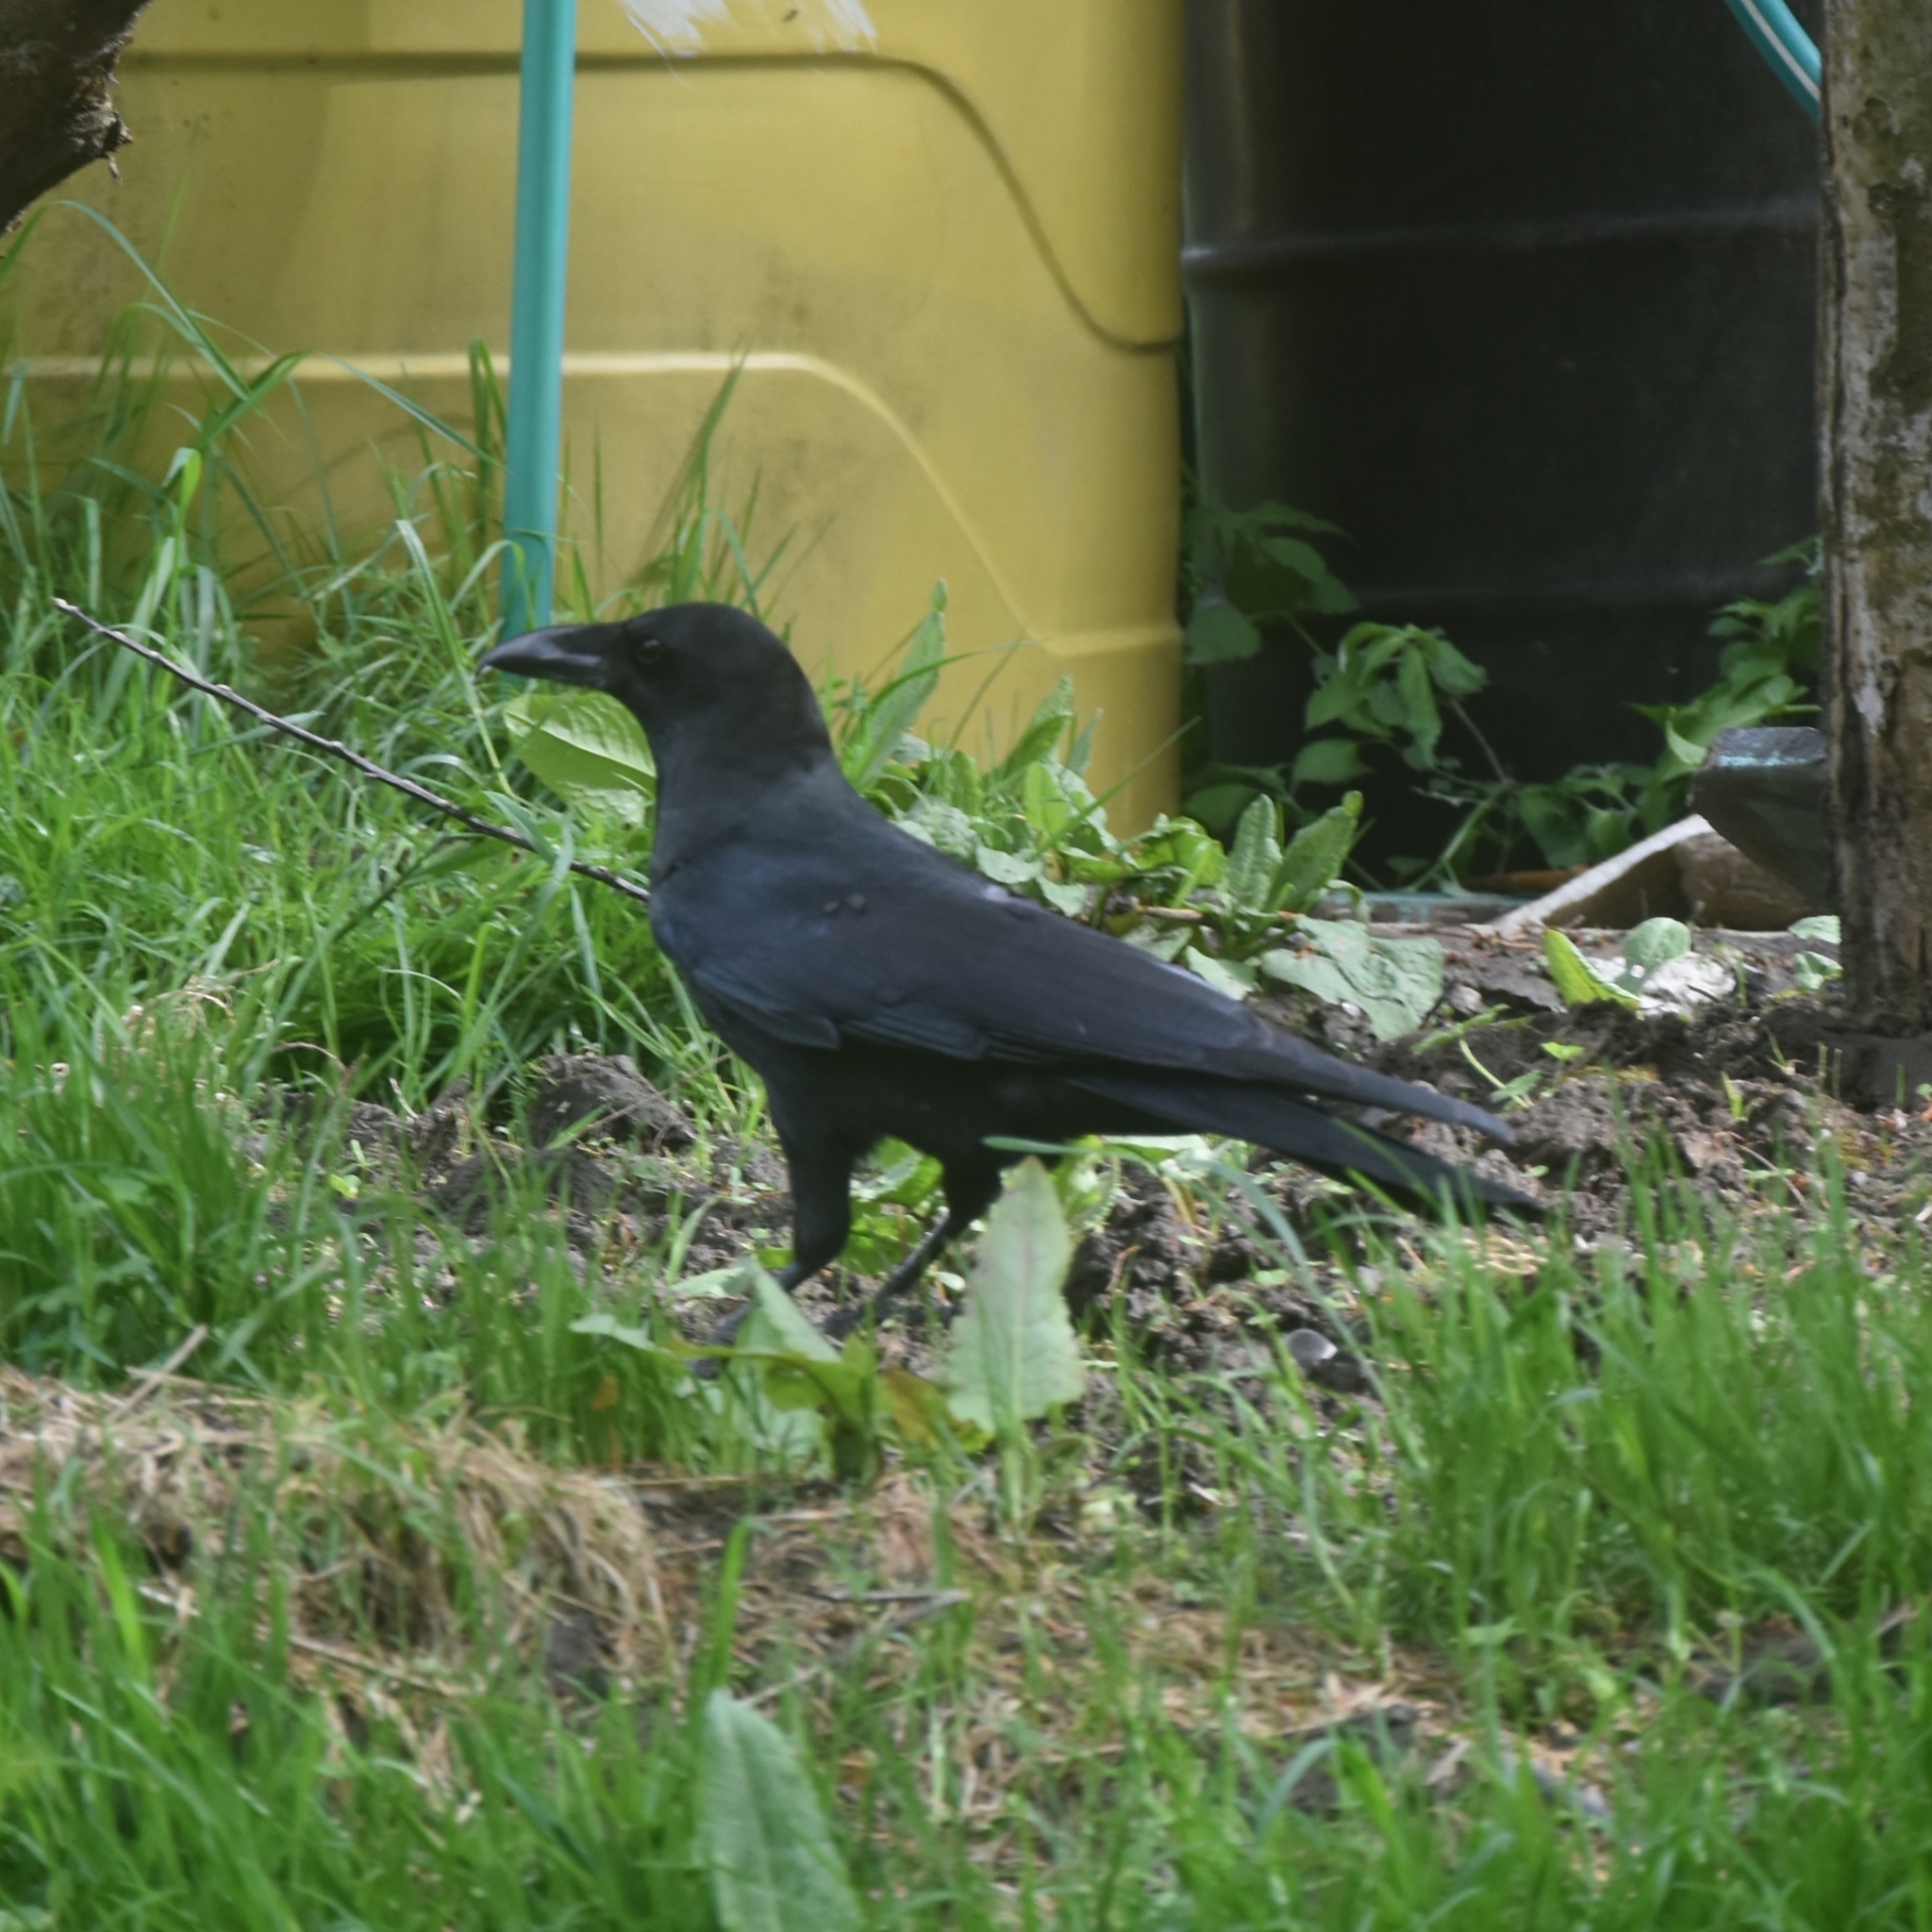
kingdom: Animalia
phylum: Chordata
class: Aves
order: Passeriformes
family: Corvidae
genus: Corvus
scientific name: Corvus macrorhynchos
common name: Large-billed crow
